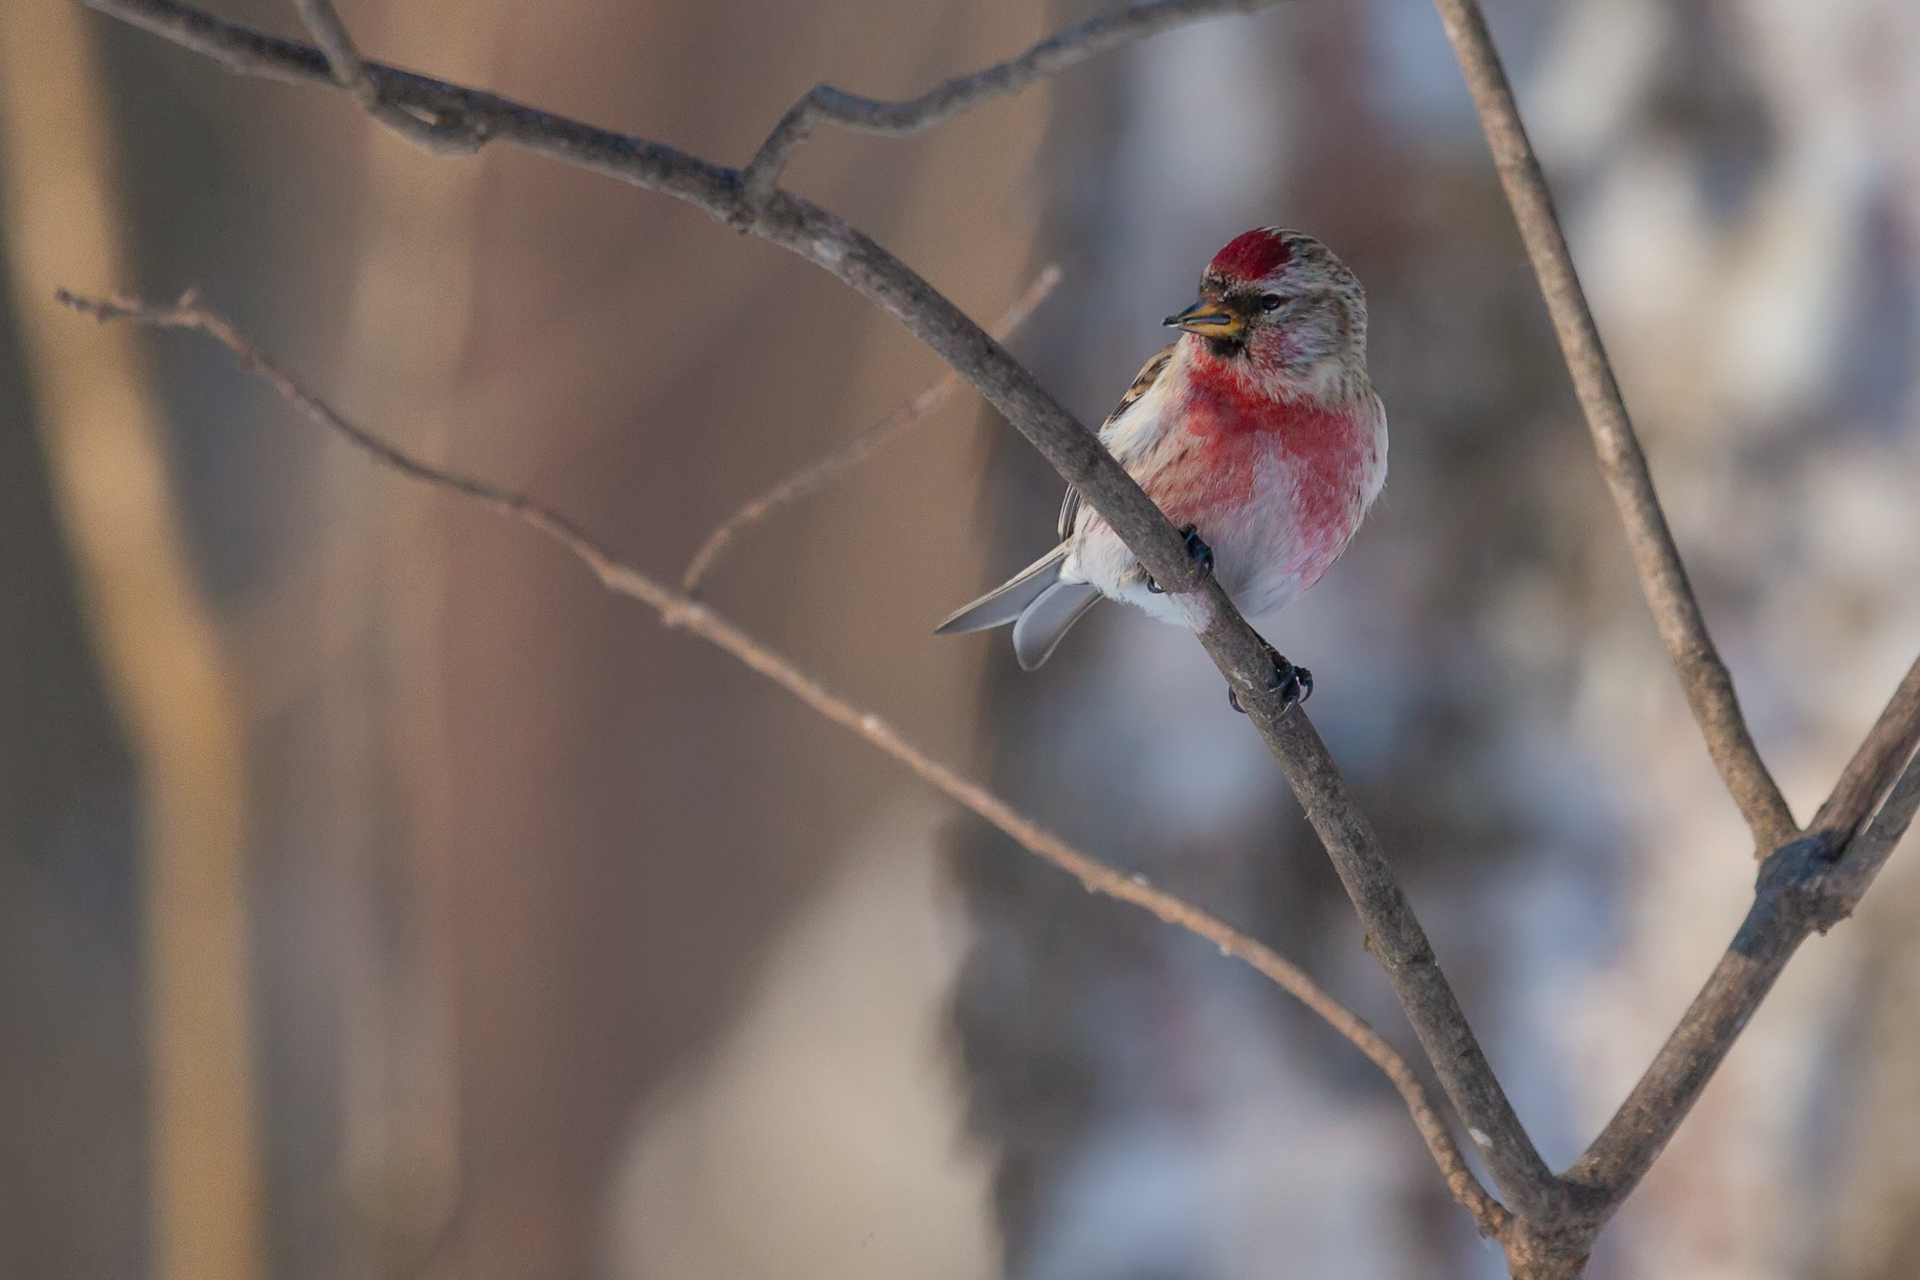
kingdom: Animalia
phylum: Chordata
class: Aves
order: Passeriformes
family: Fringillidae
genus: Acanthis
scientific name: Acanthis flammea
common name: Common redpoll
